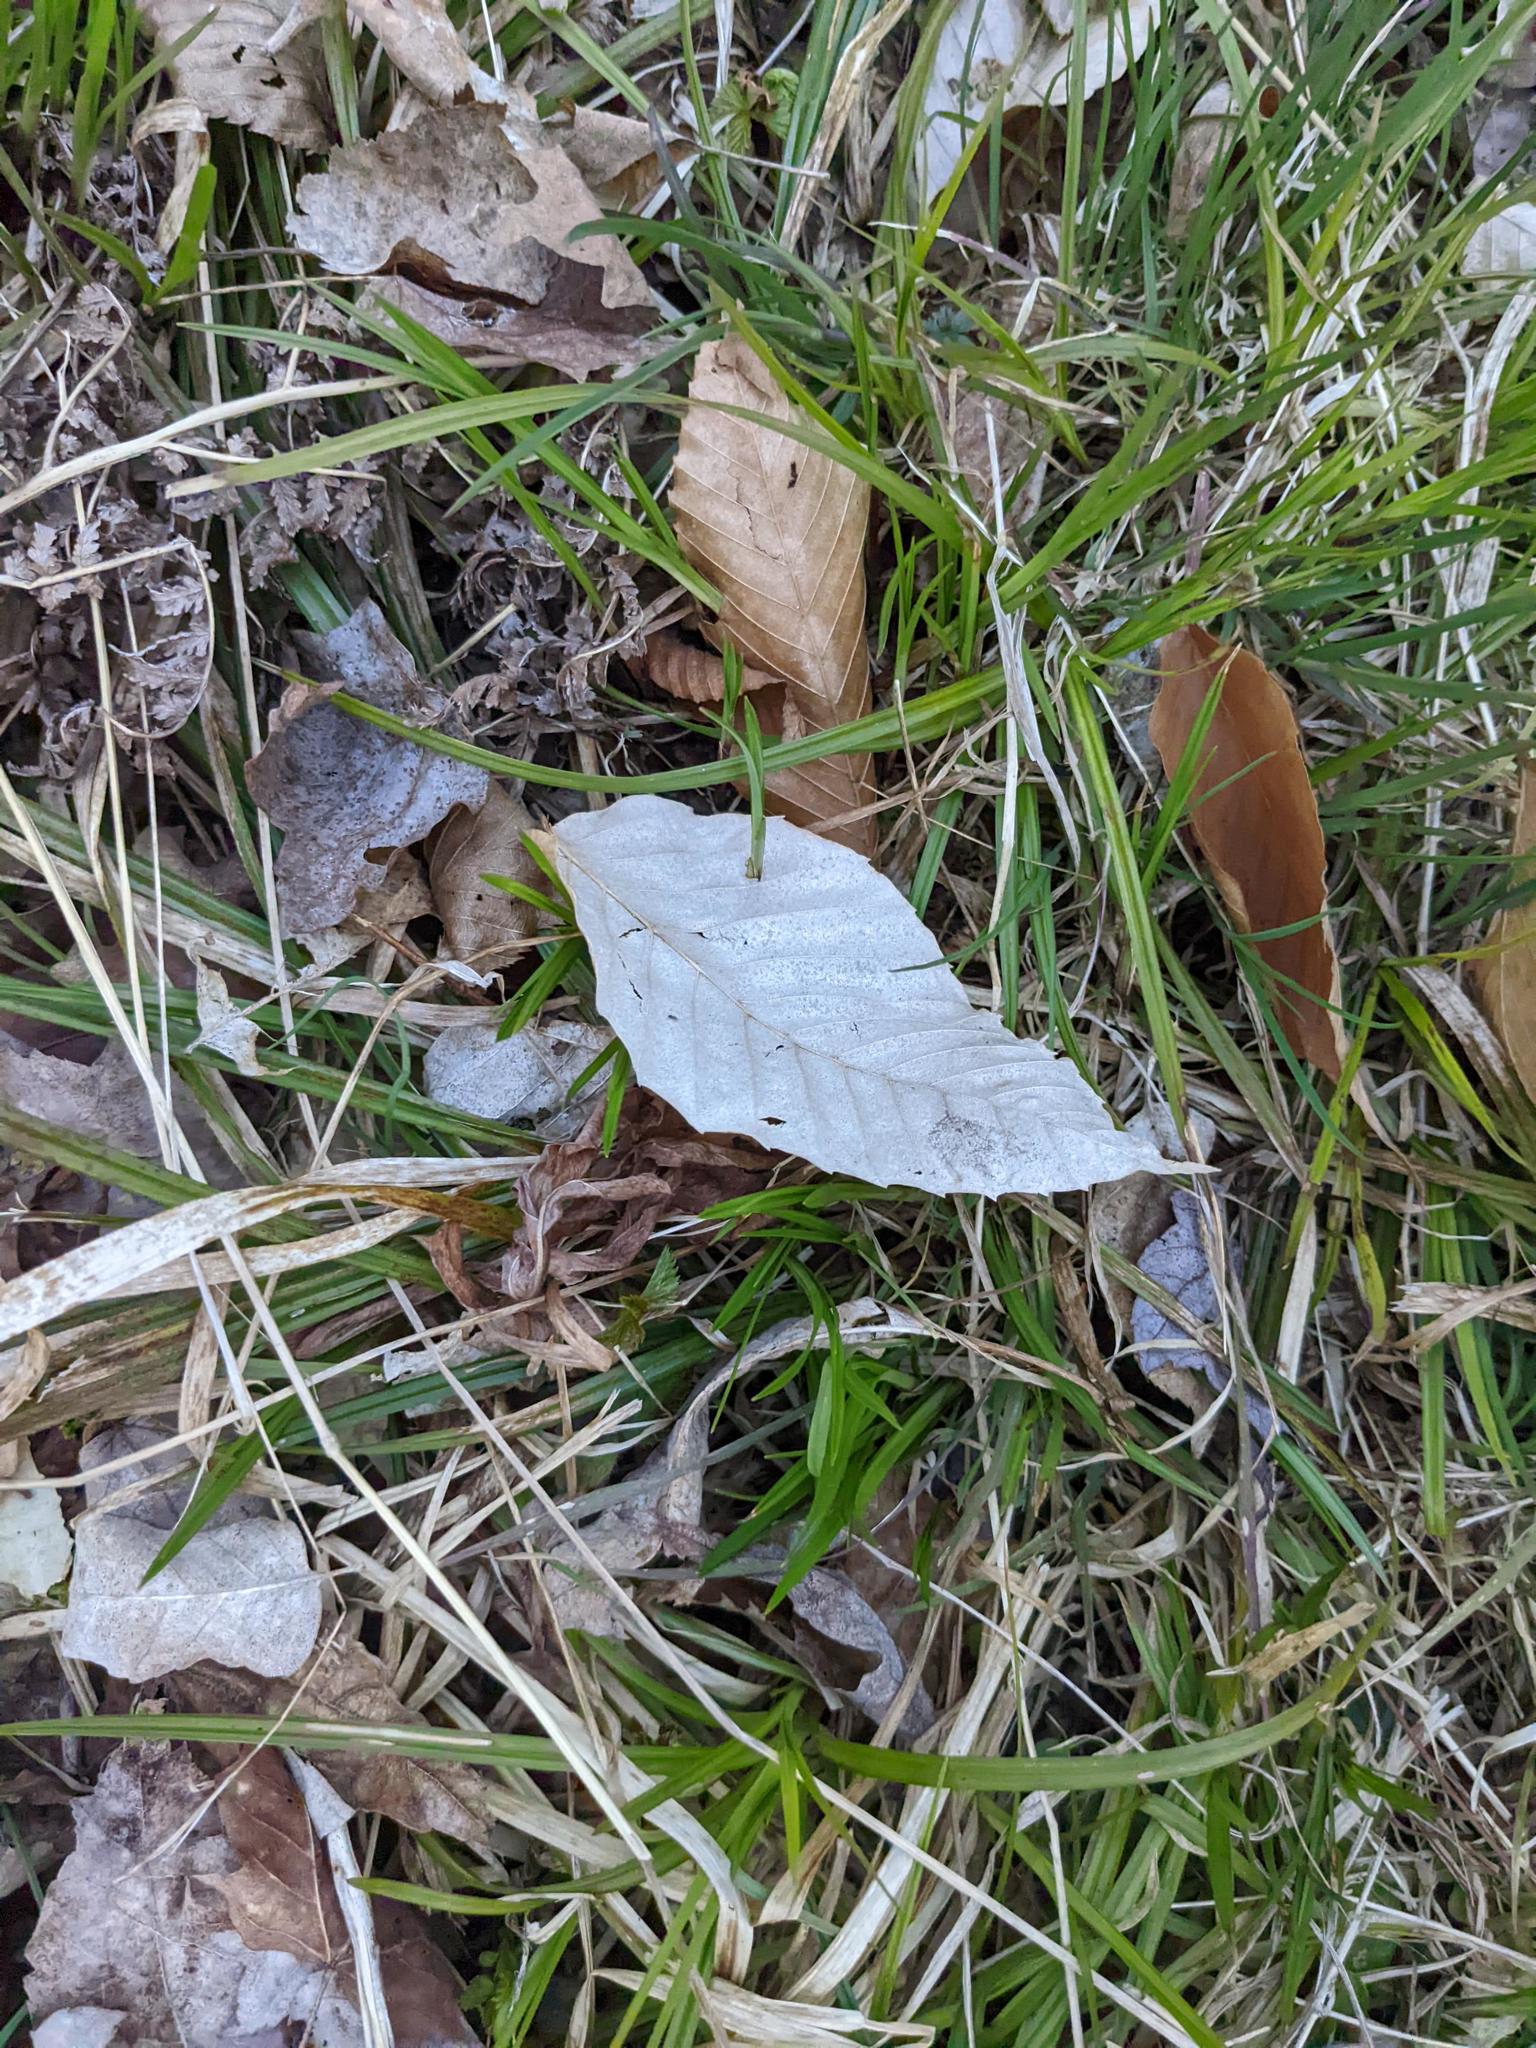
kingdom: Plantae
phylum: Tracheophyta
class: Magnoliopsida
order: Fagales
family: Fagaceae
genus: Fagus
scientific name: Fagus grandifolia
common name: American beech
